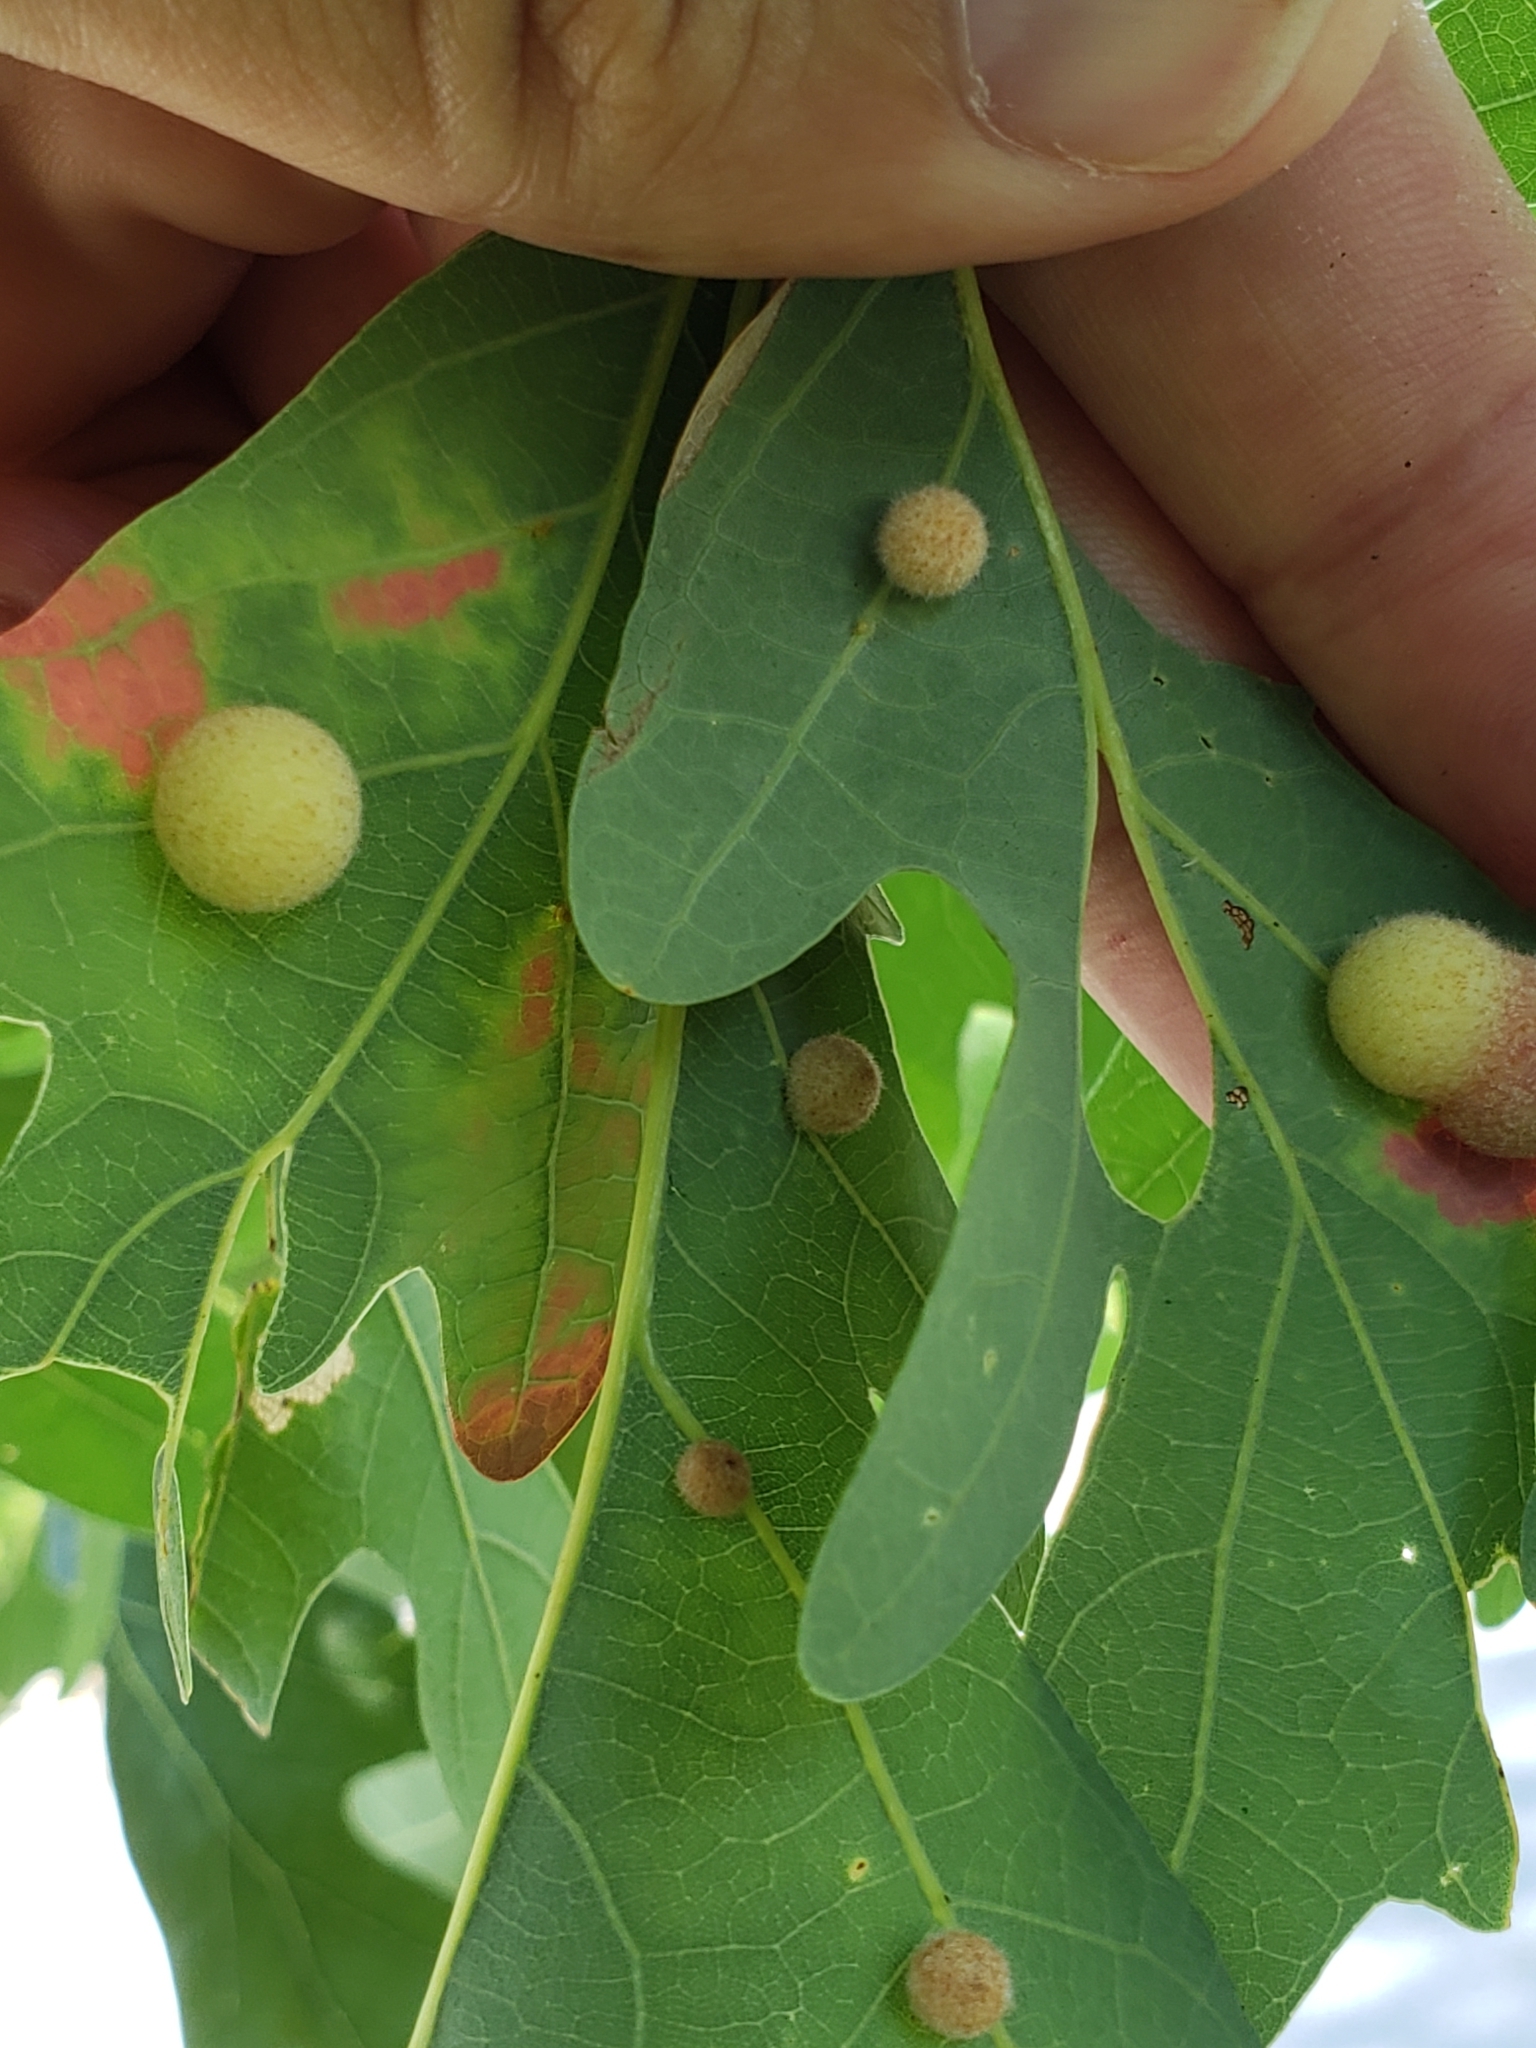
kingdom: Animalia
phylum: Arthropoda
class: Insecta
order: Hymenoptera
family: Cynipidae
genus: Philonix
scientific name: Philonix fulvicollis
